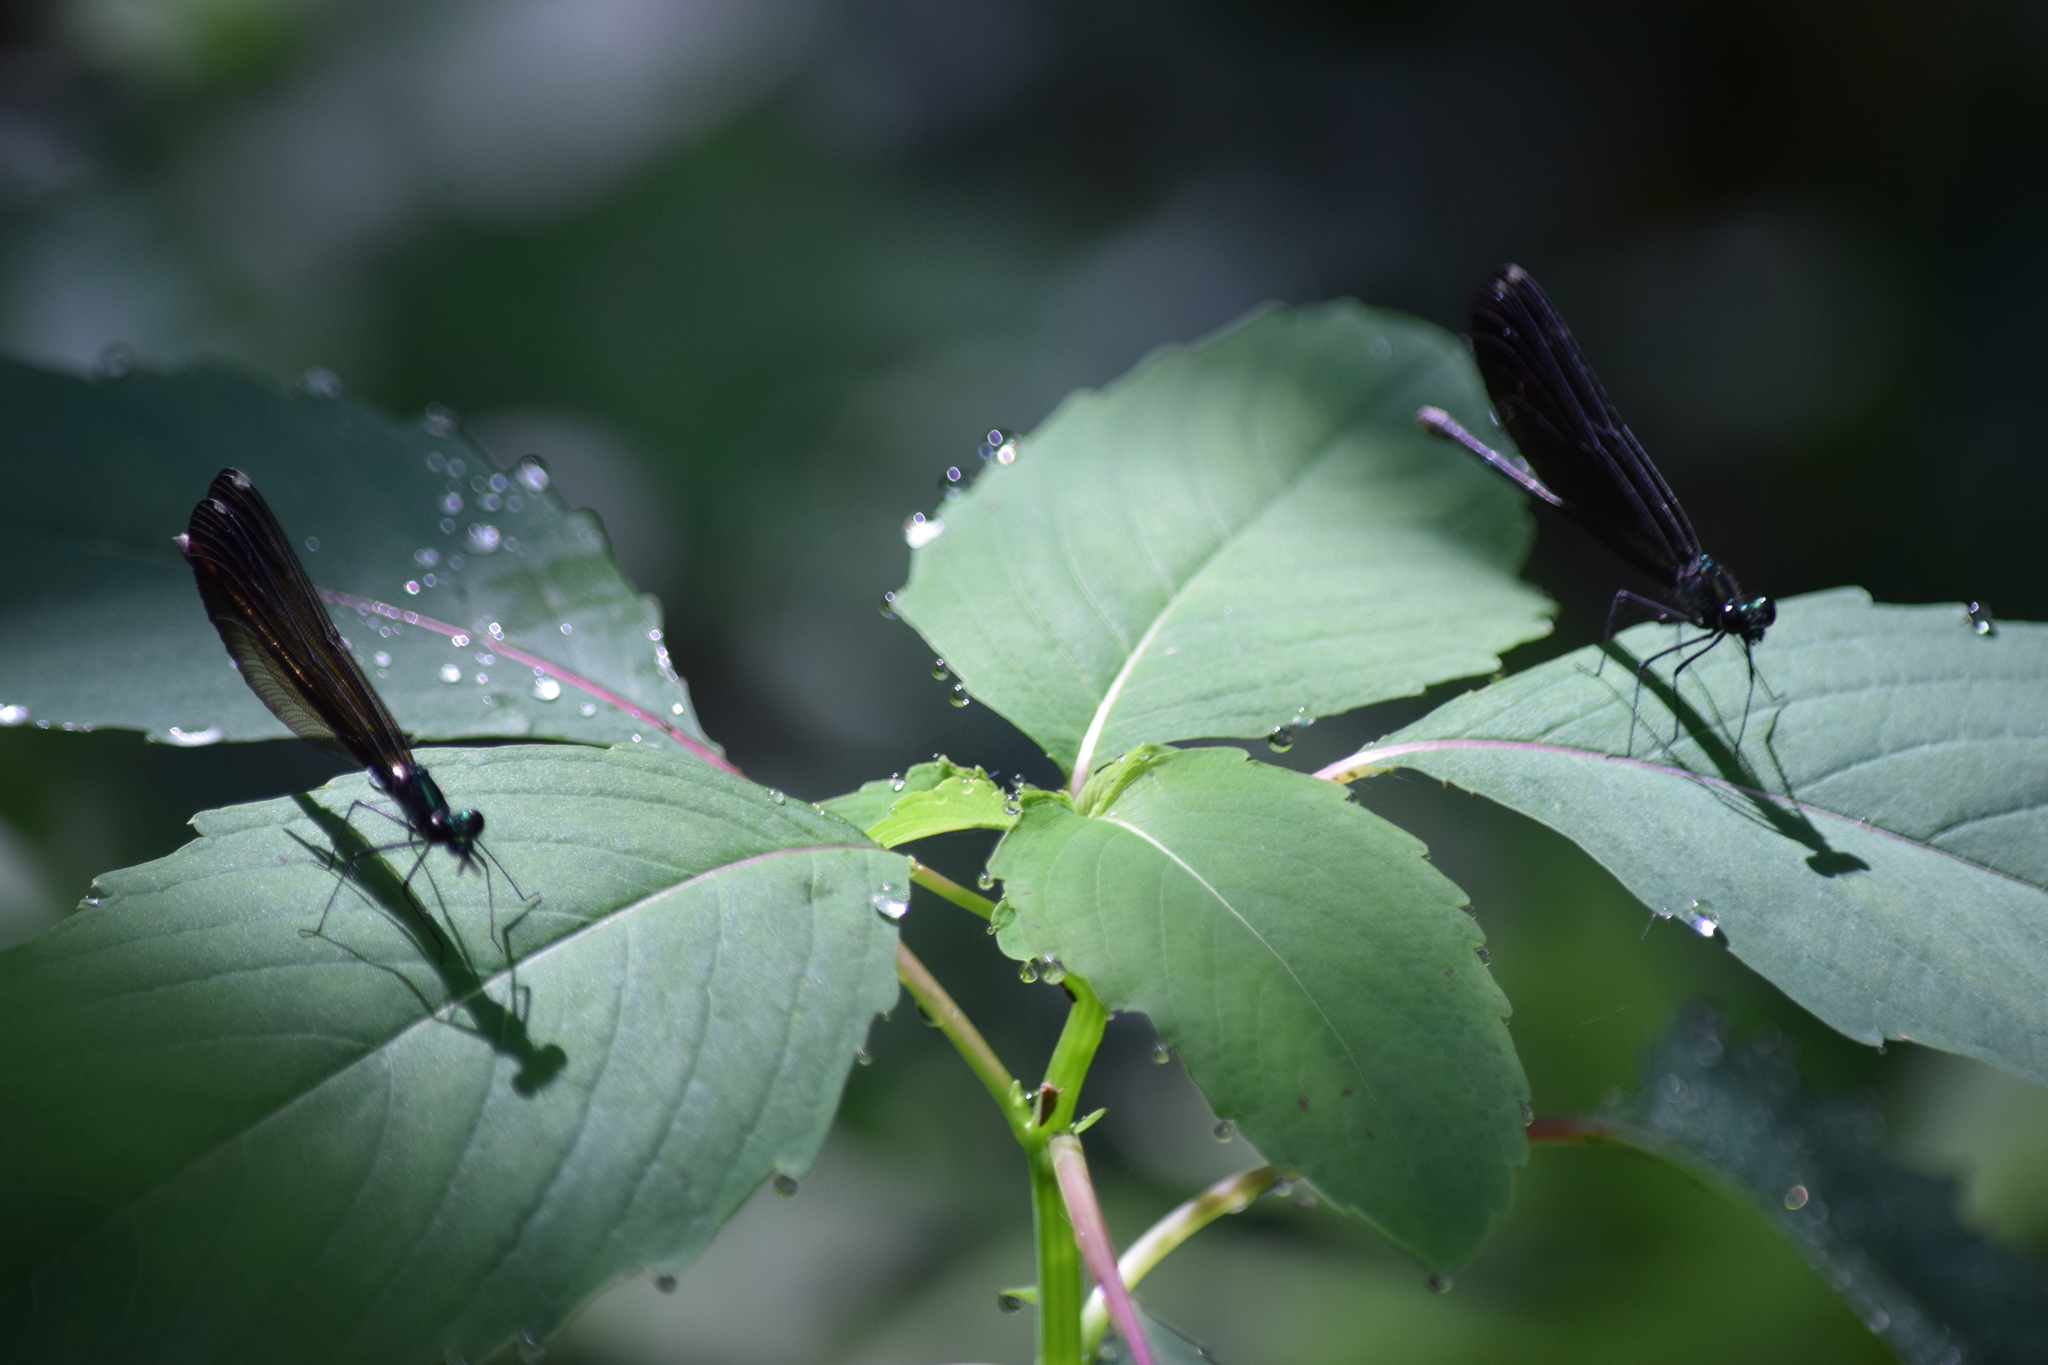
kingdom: Animalia
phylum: Arthropoda
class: Insecta
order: Odonata
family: Calopterygidae
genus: Calopteryx
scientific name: Calopteryx maculata
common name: Ebony jewelwing
